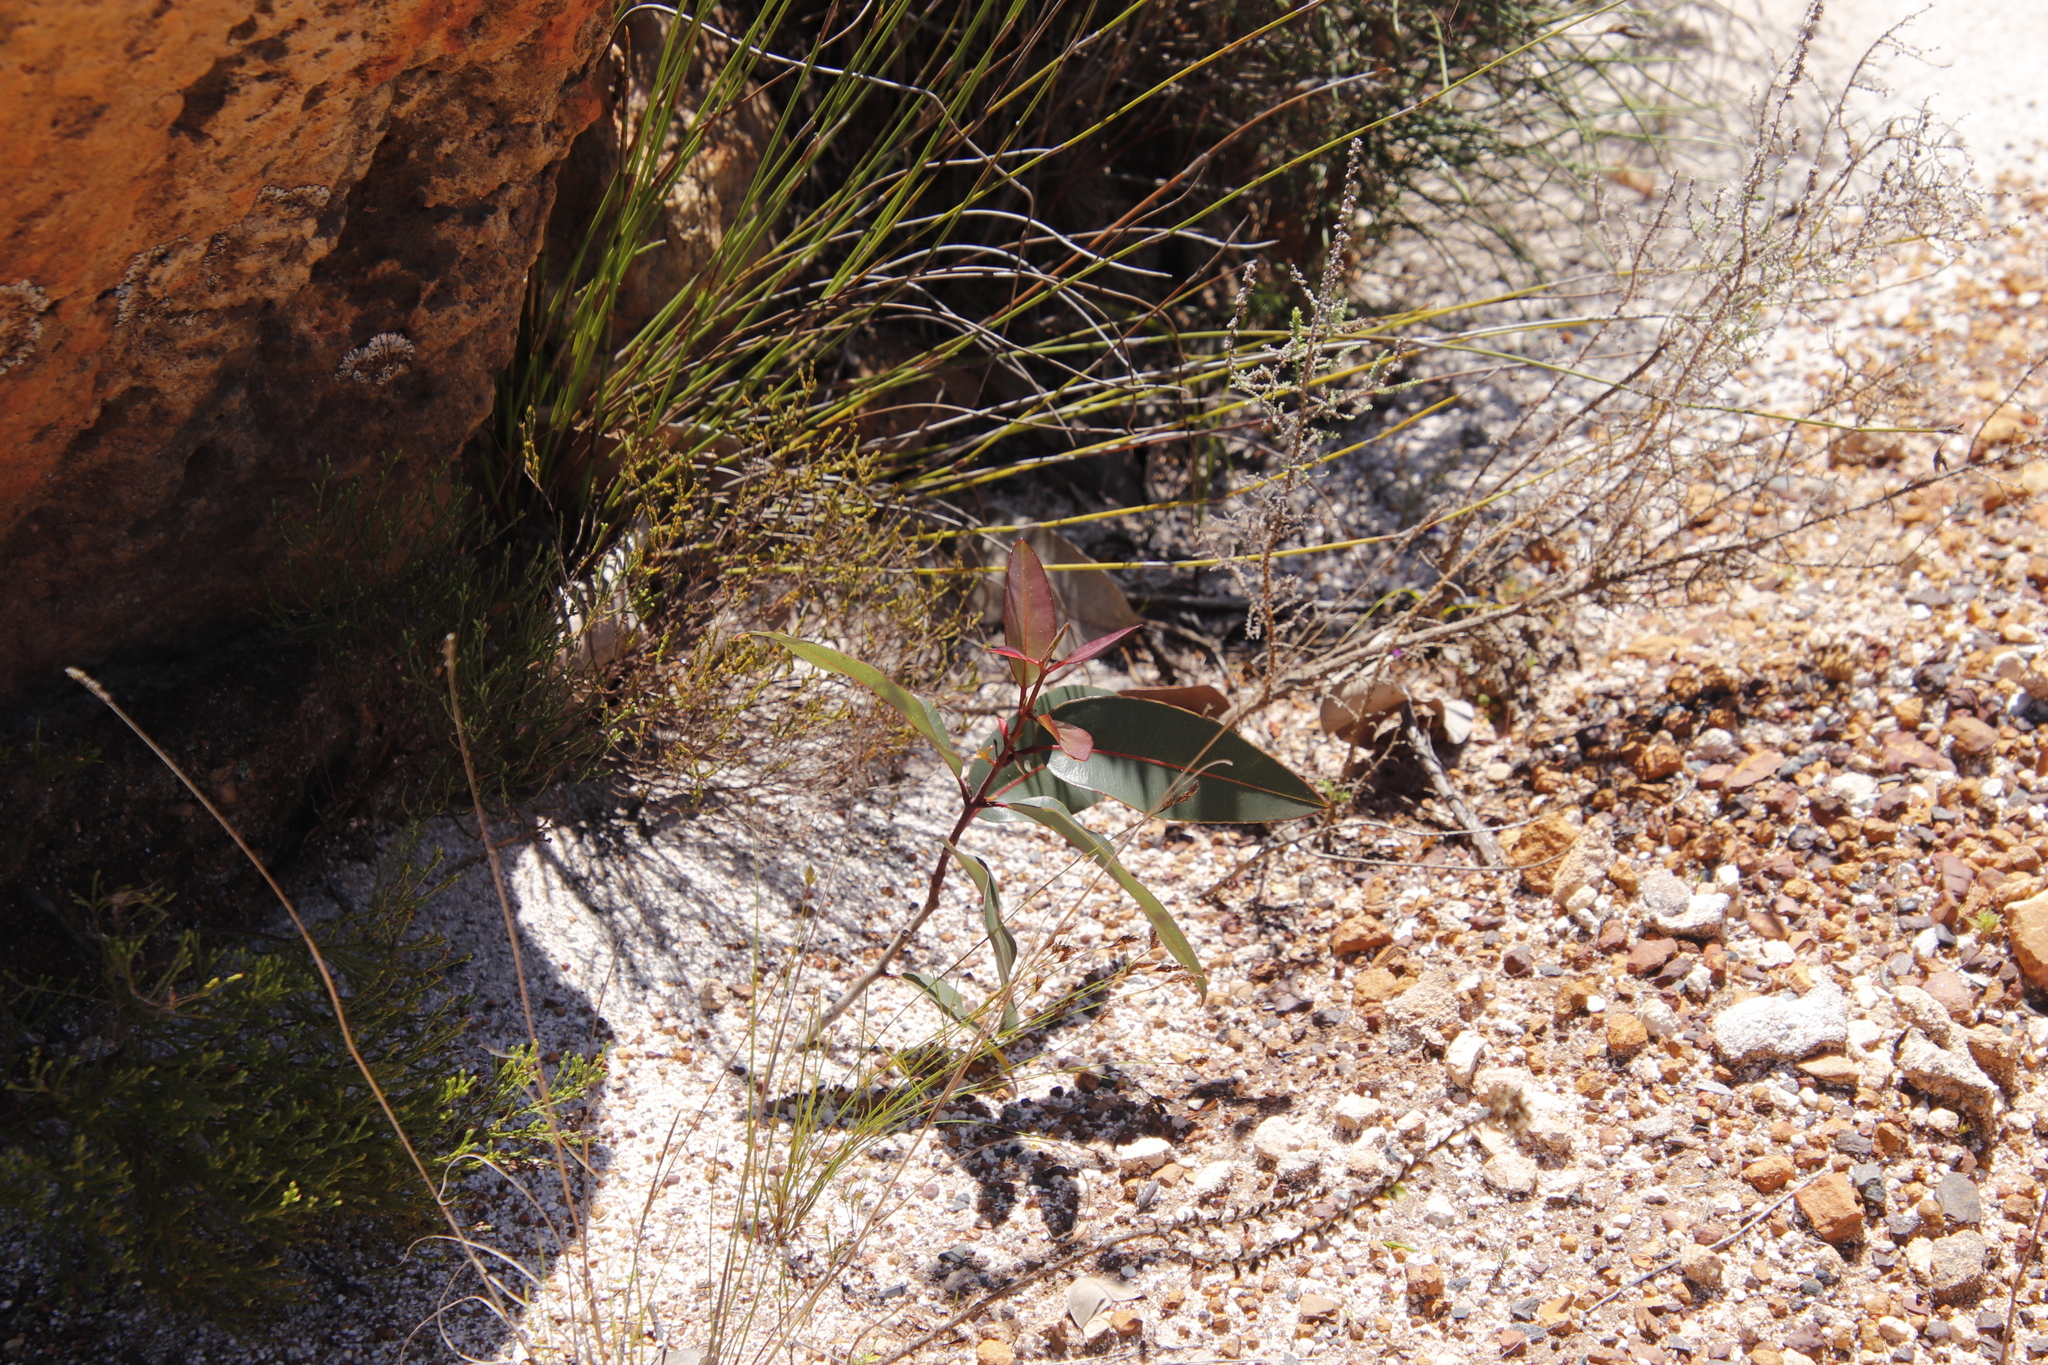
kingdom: Plantae
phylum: Tracheophyta
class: Magnoliopsida
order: Myrtales
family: Myrtaceae
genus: Corymbia
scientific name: Corymbia ficifolia
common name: Redflower gum
